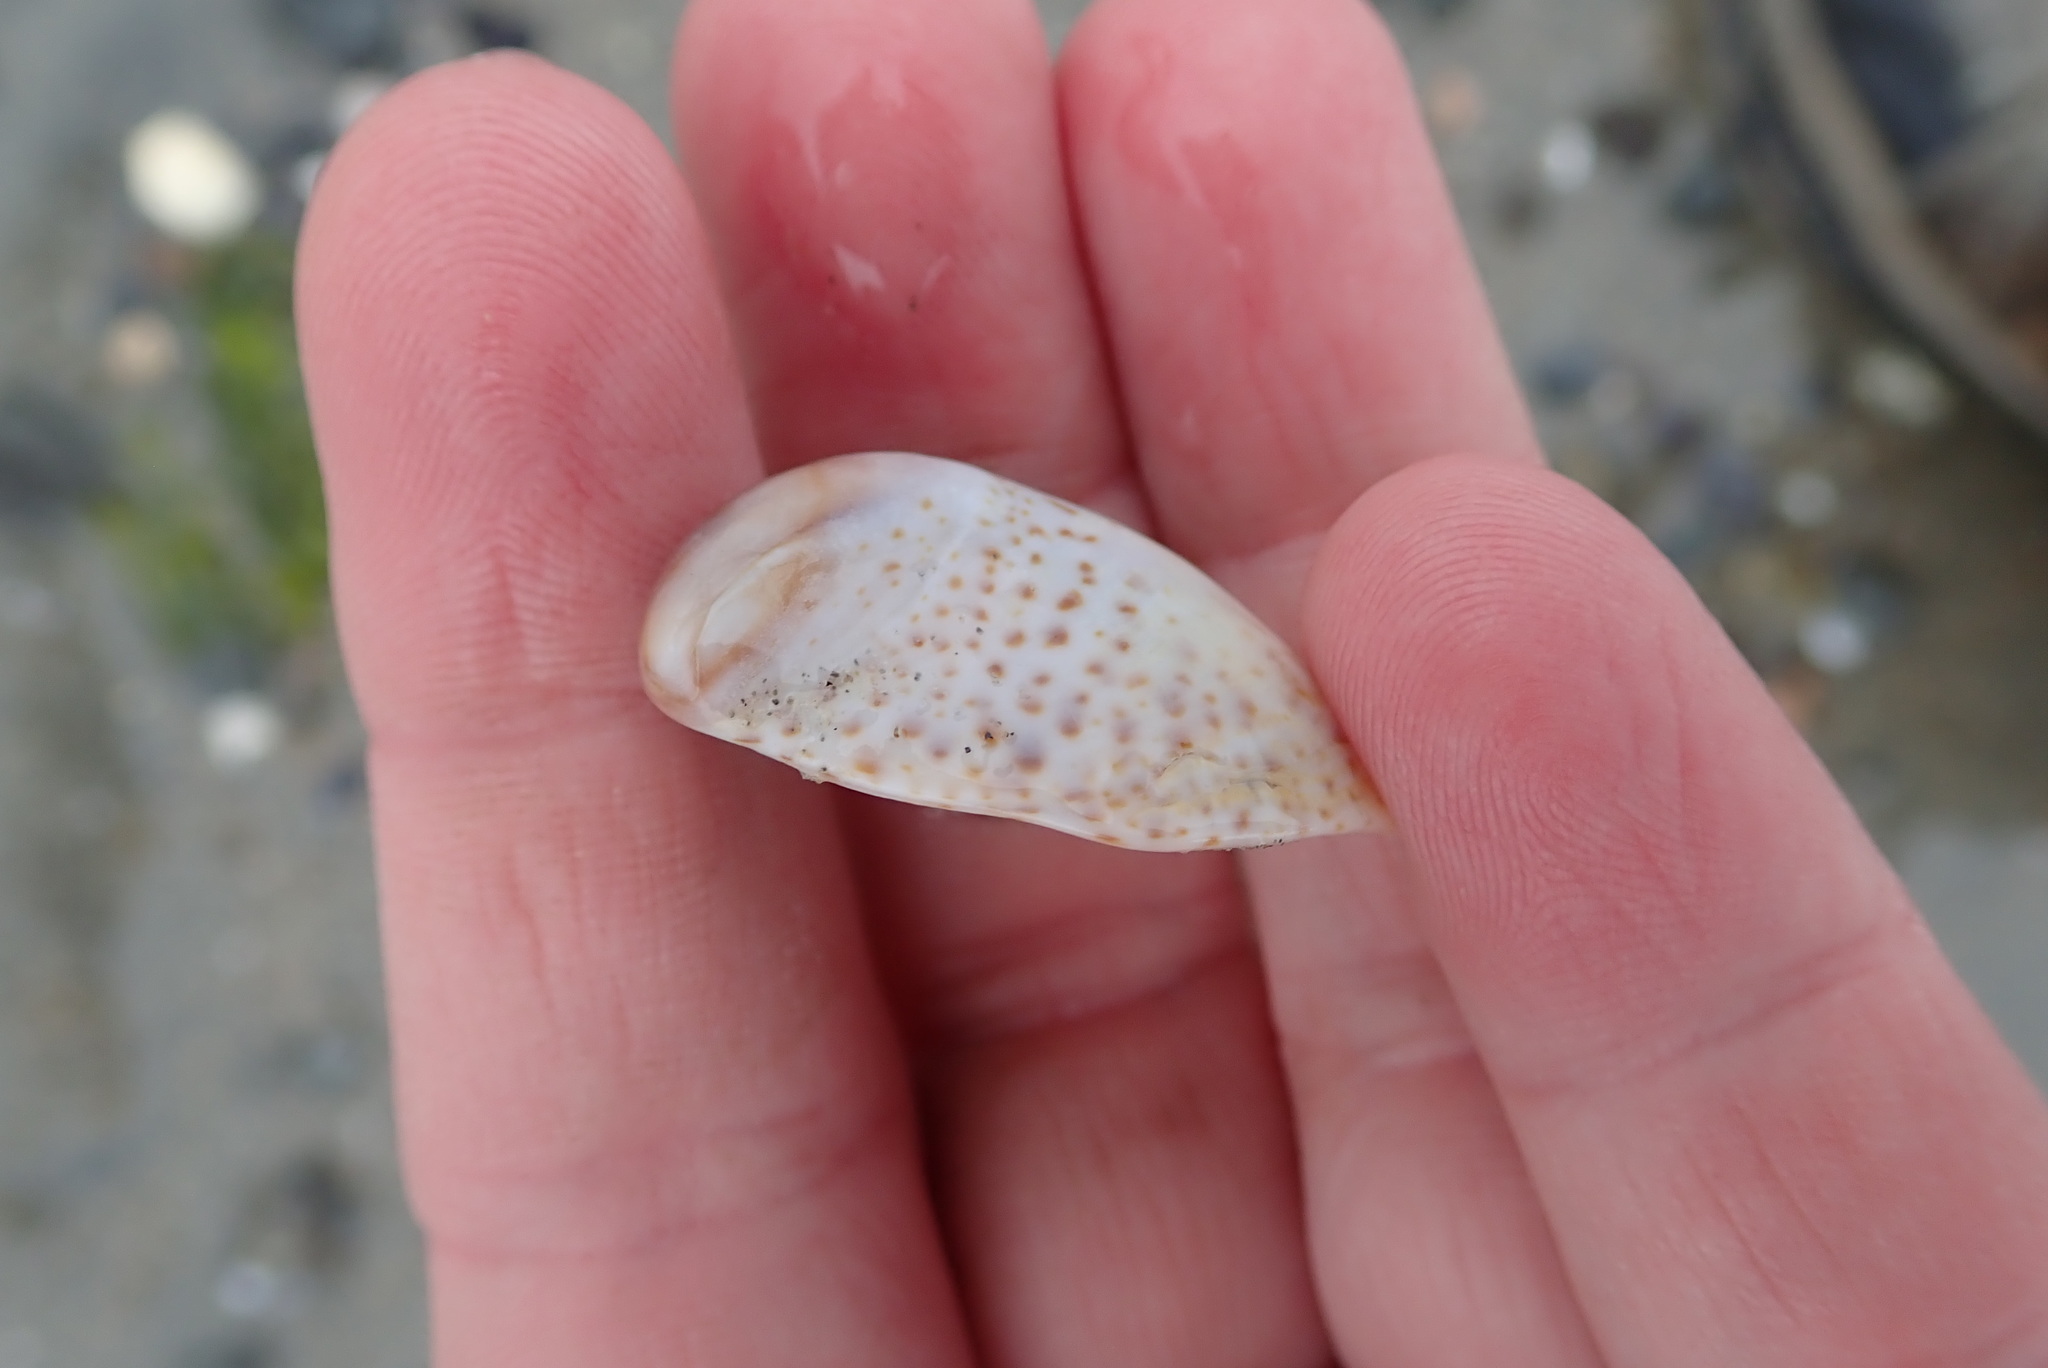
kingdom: Animalia
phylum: Mollusca
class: Gastropoda
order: Littorinimorpha
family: Calyptraeidae
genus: Crepidula
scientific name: Crepidula fornicata
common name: Slipper limpet
